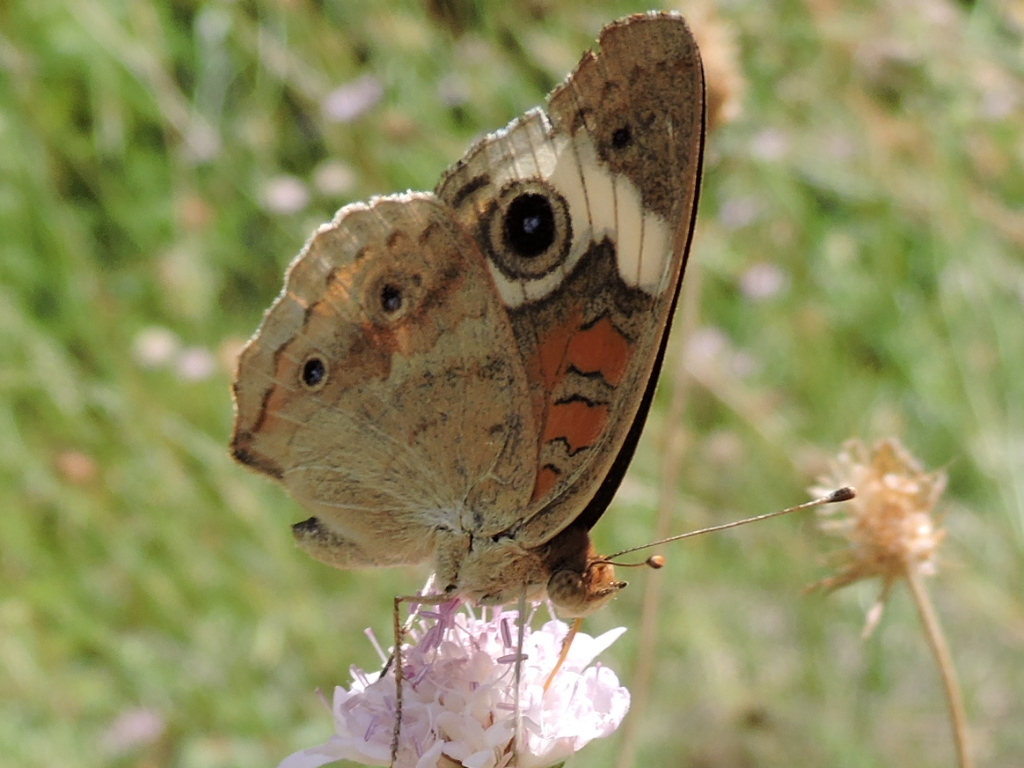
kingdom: Animalia
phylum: Arthropoda
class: Insecta
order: Lepidoptera
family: Nymphalidae
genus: Junonia
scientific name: Junonia coenia
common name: Common buckeye
